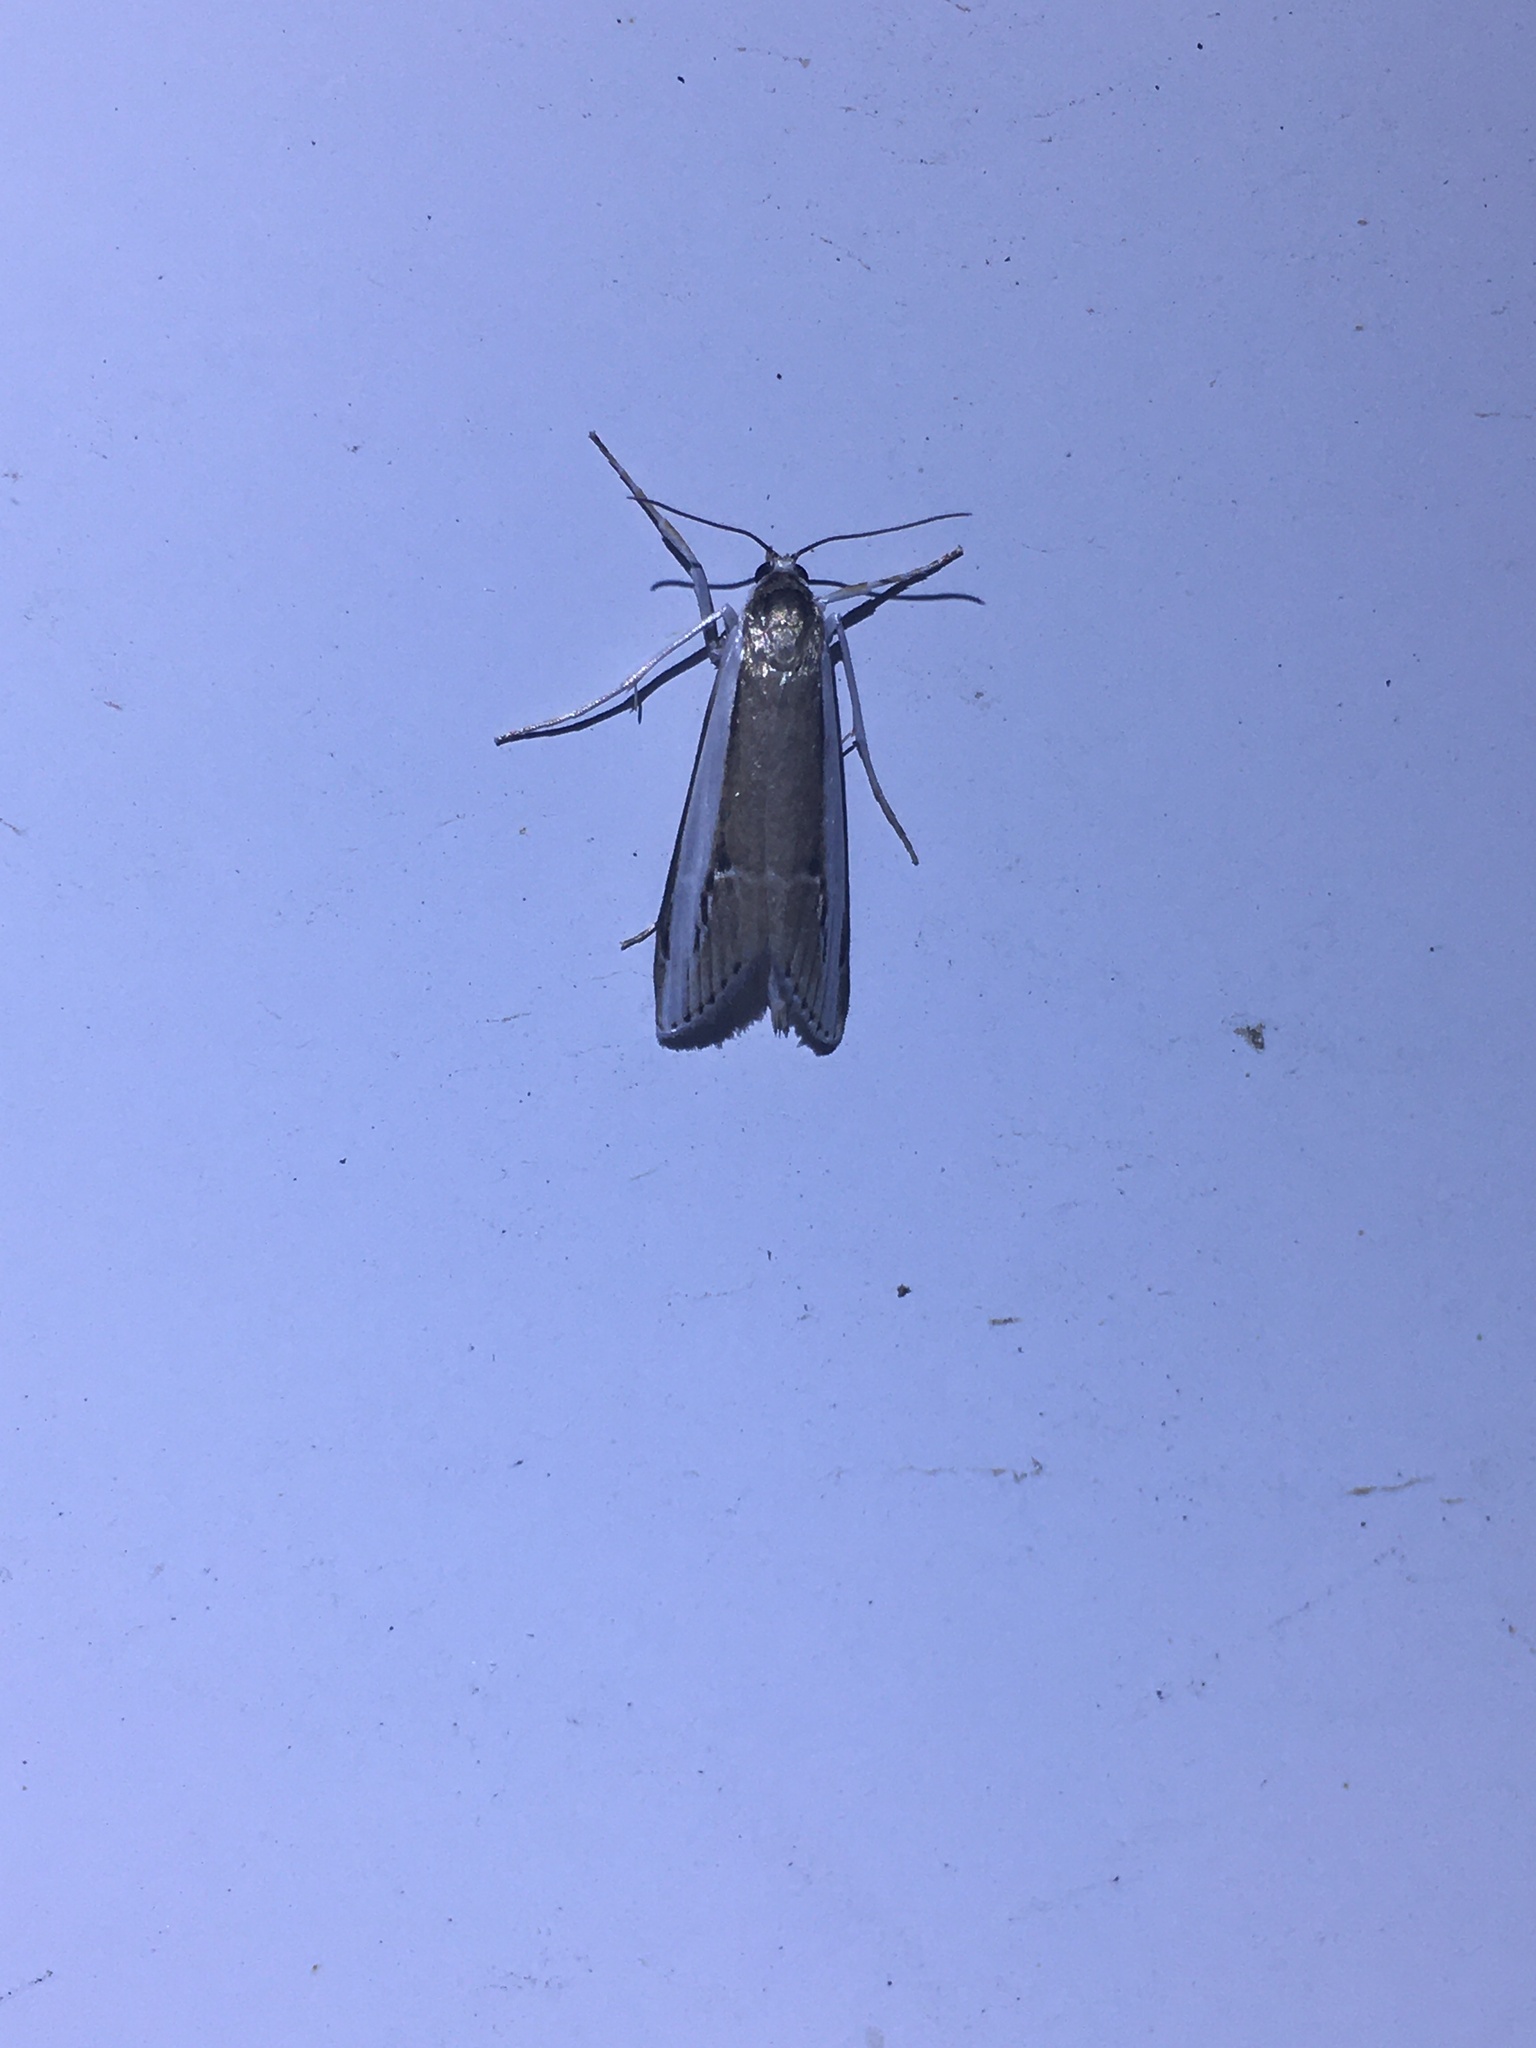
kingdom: Animalia
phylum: Arthropoda
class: Insecta
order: Lepidoptera
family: Crambidae
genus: Carectocultus
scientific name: Carectocultus dominicki
